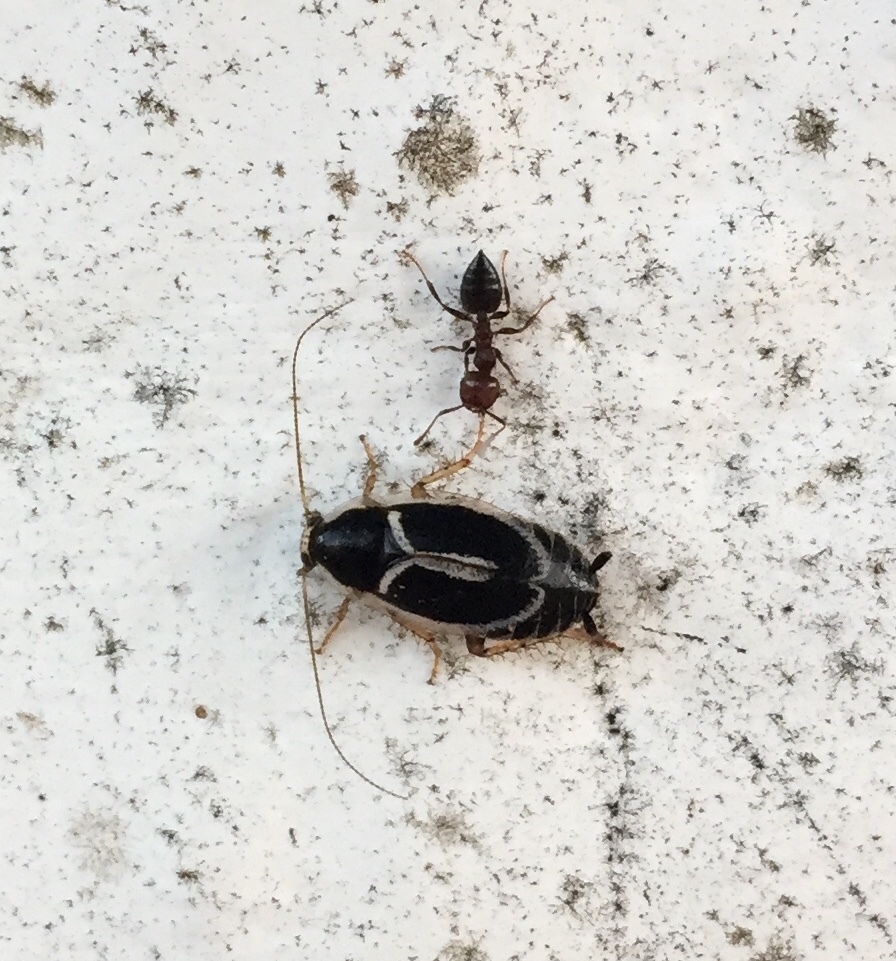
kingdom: Animalia
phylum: Arthropoda
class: Insecta
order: Blattodea
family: Ectobiidae
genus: Phyllodromica
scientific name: Phyllodromica marginata
